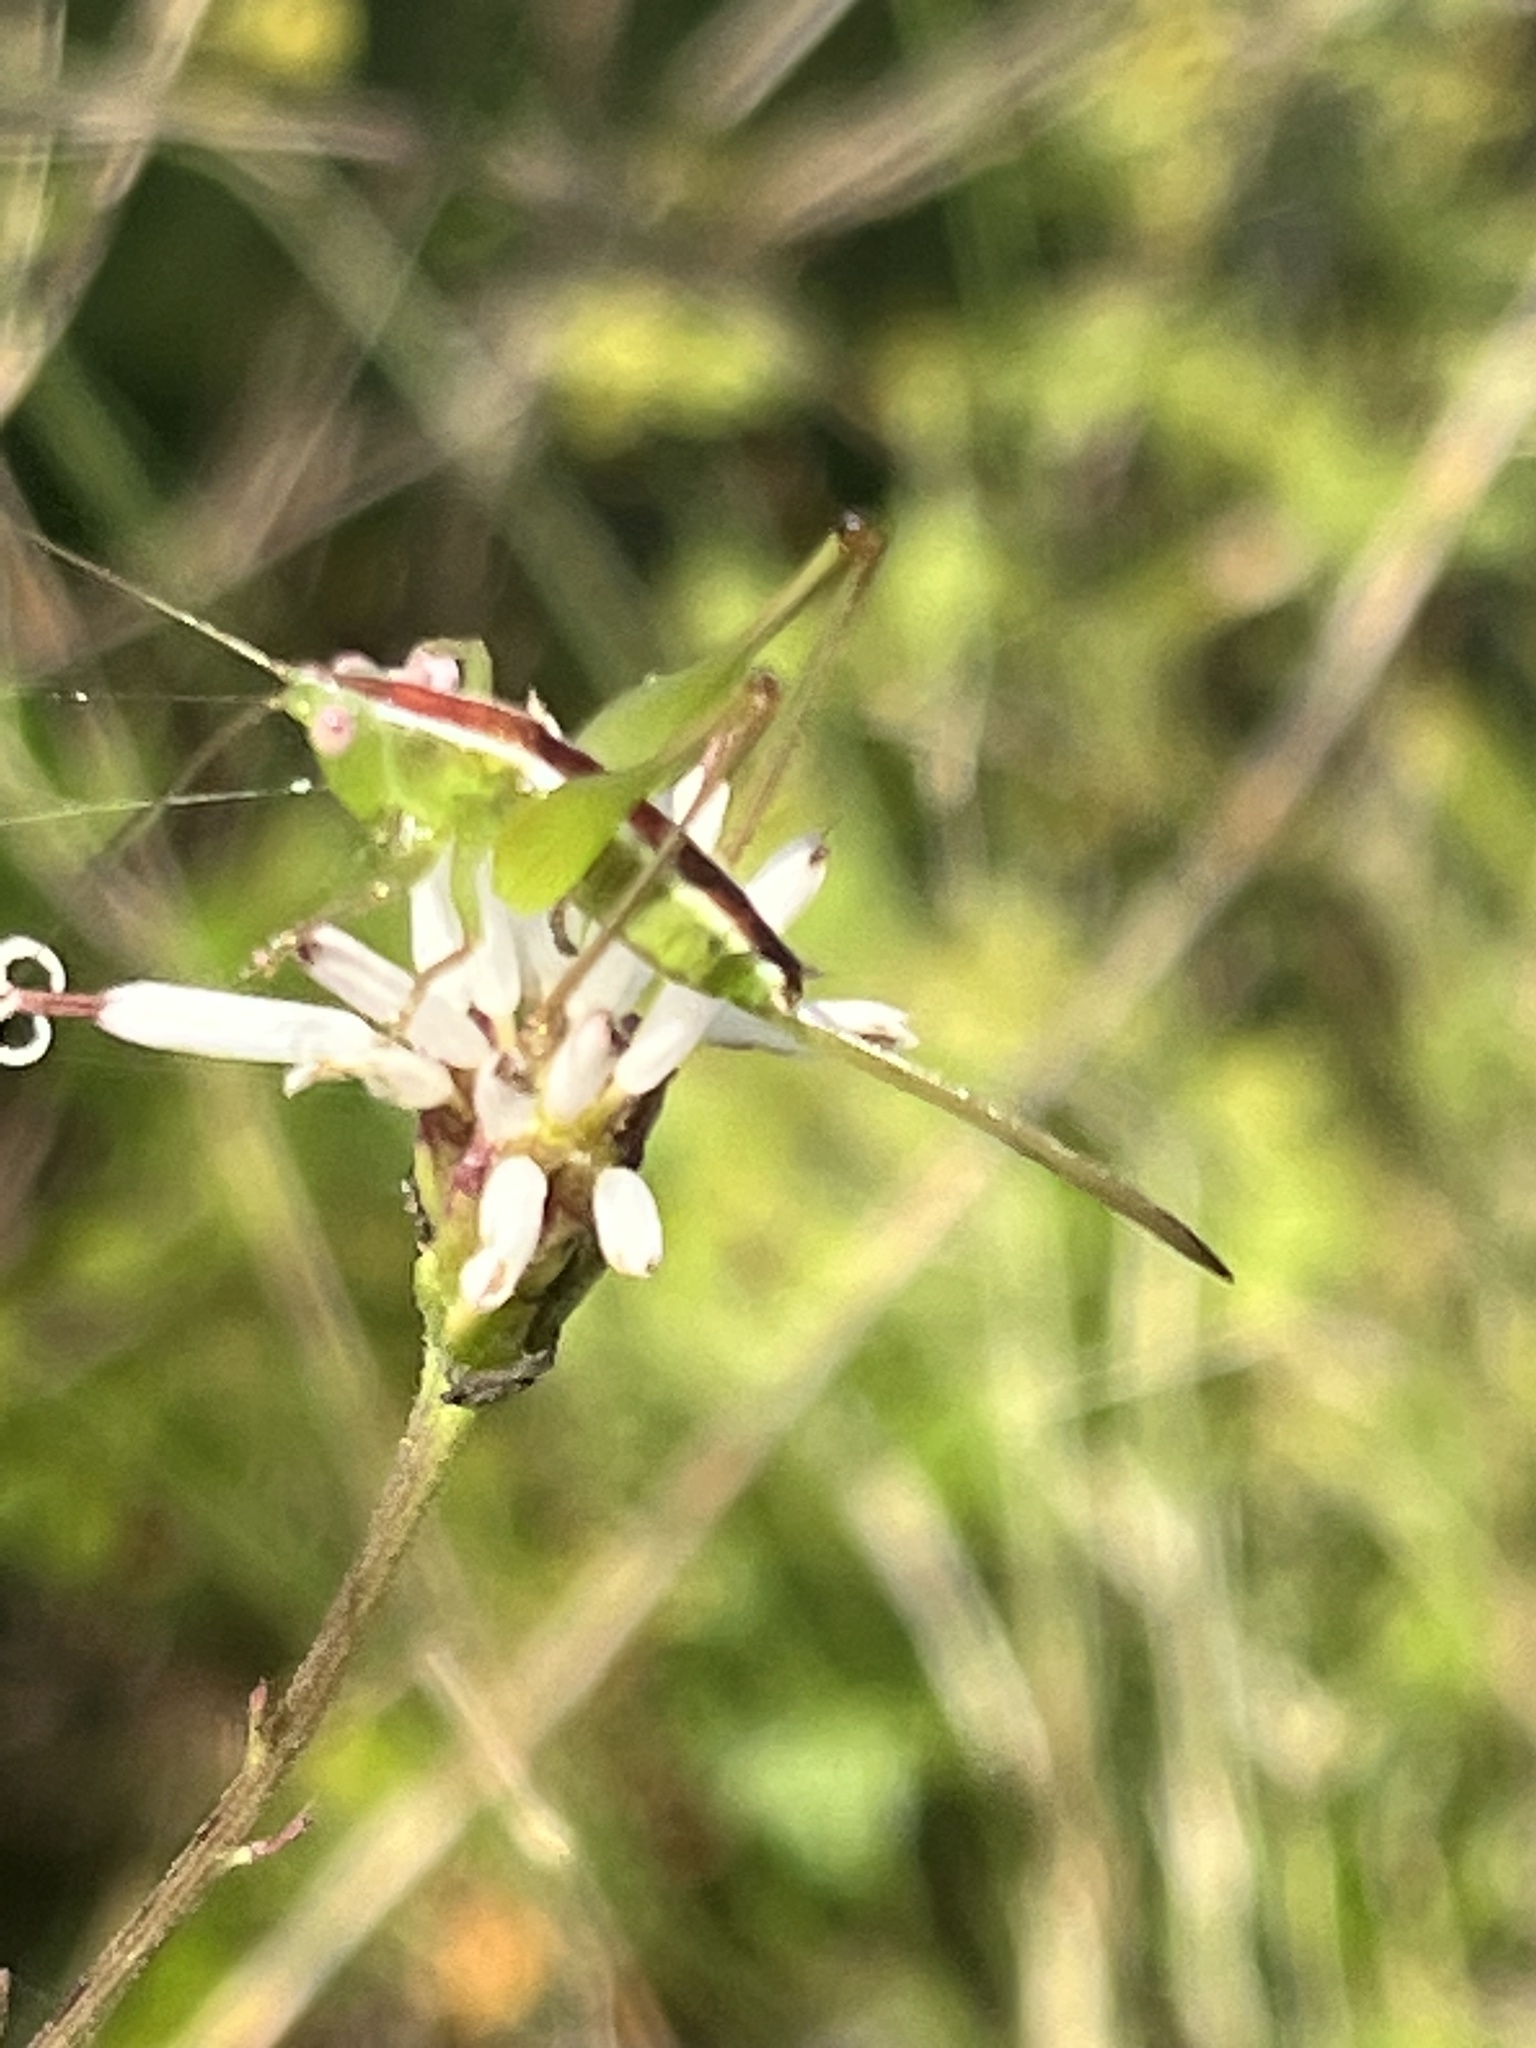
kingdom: Animalia
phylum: Arthropoda
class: Insecta
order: Orthoptera
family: Tettigoniidae
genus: Odontoxiphidium
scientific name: Odontoxiphidium apterum
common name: Wingless meadow katydid
